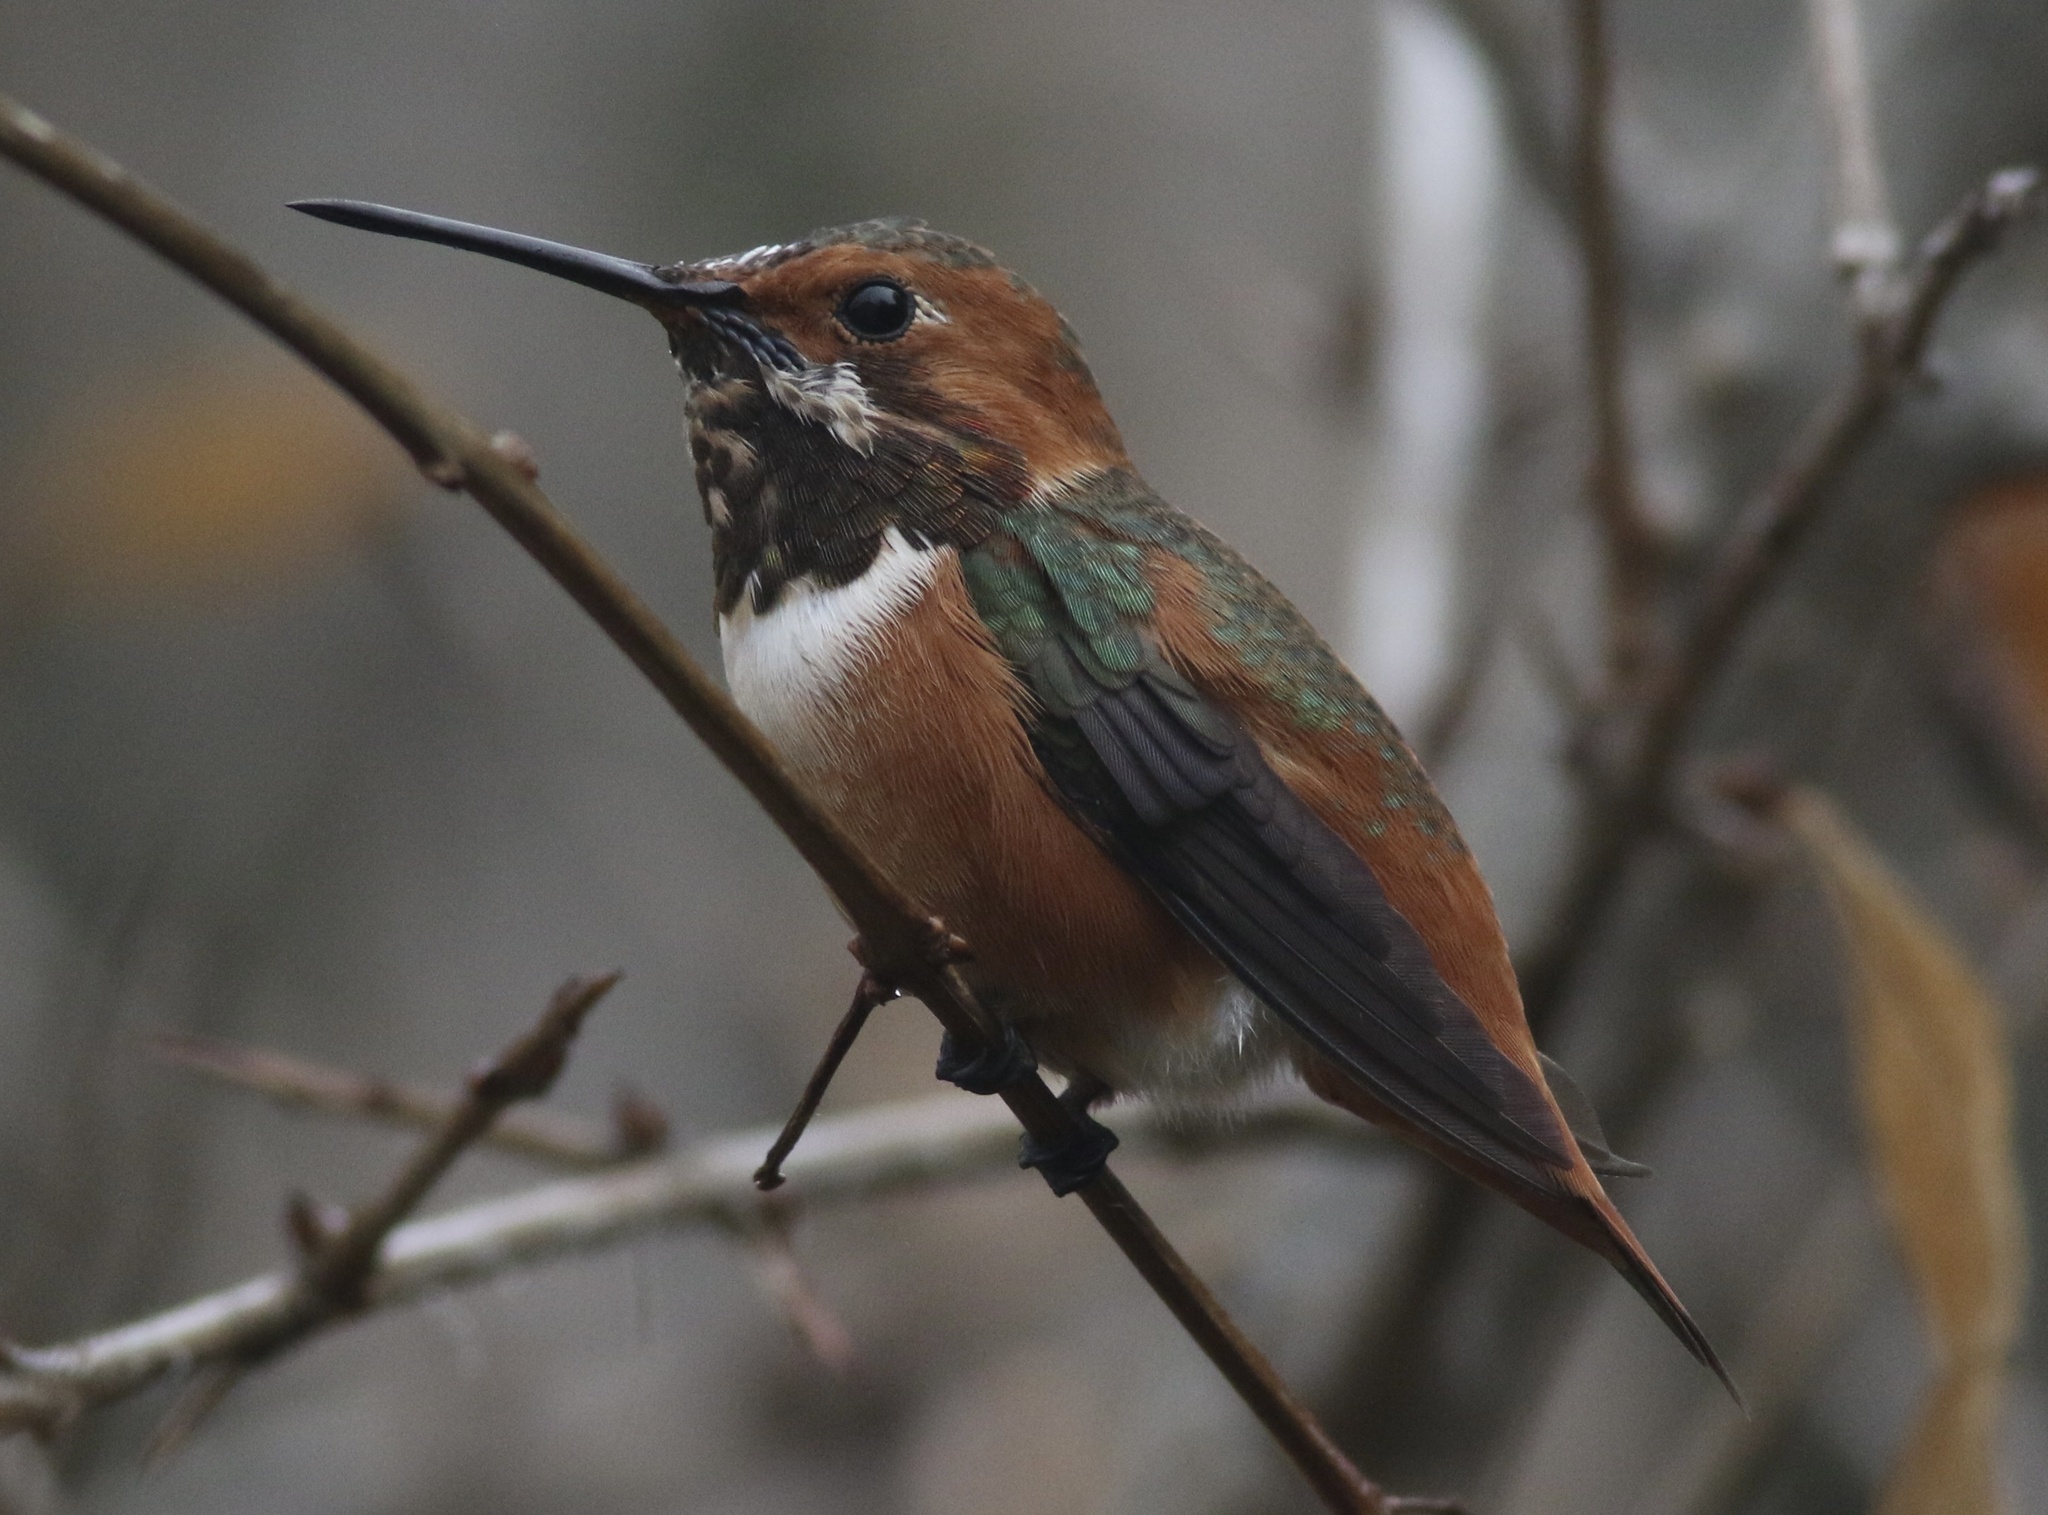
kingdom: Animalia
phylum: Chordata
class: Aves
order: Apodiformes
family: Trochilidae
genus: Selasphorus
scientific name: Selasphorus sasin
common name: Allen's hummingbird
